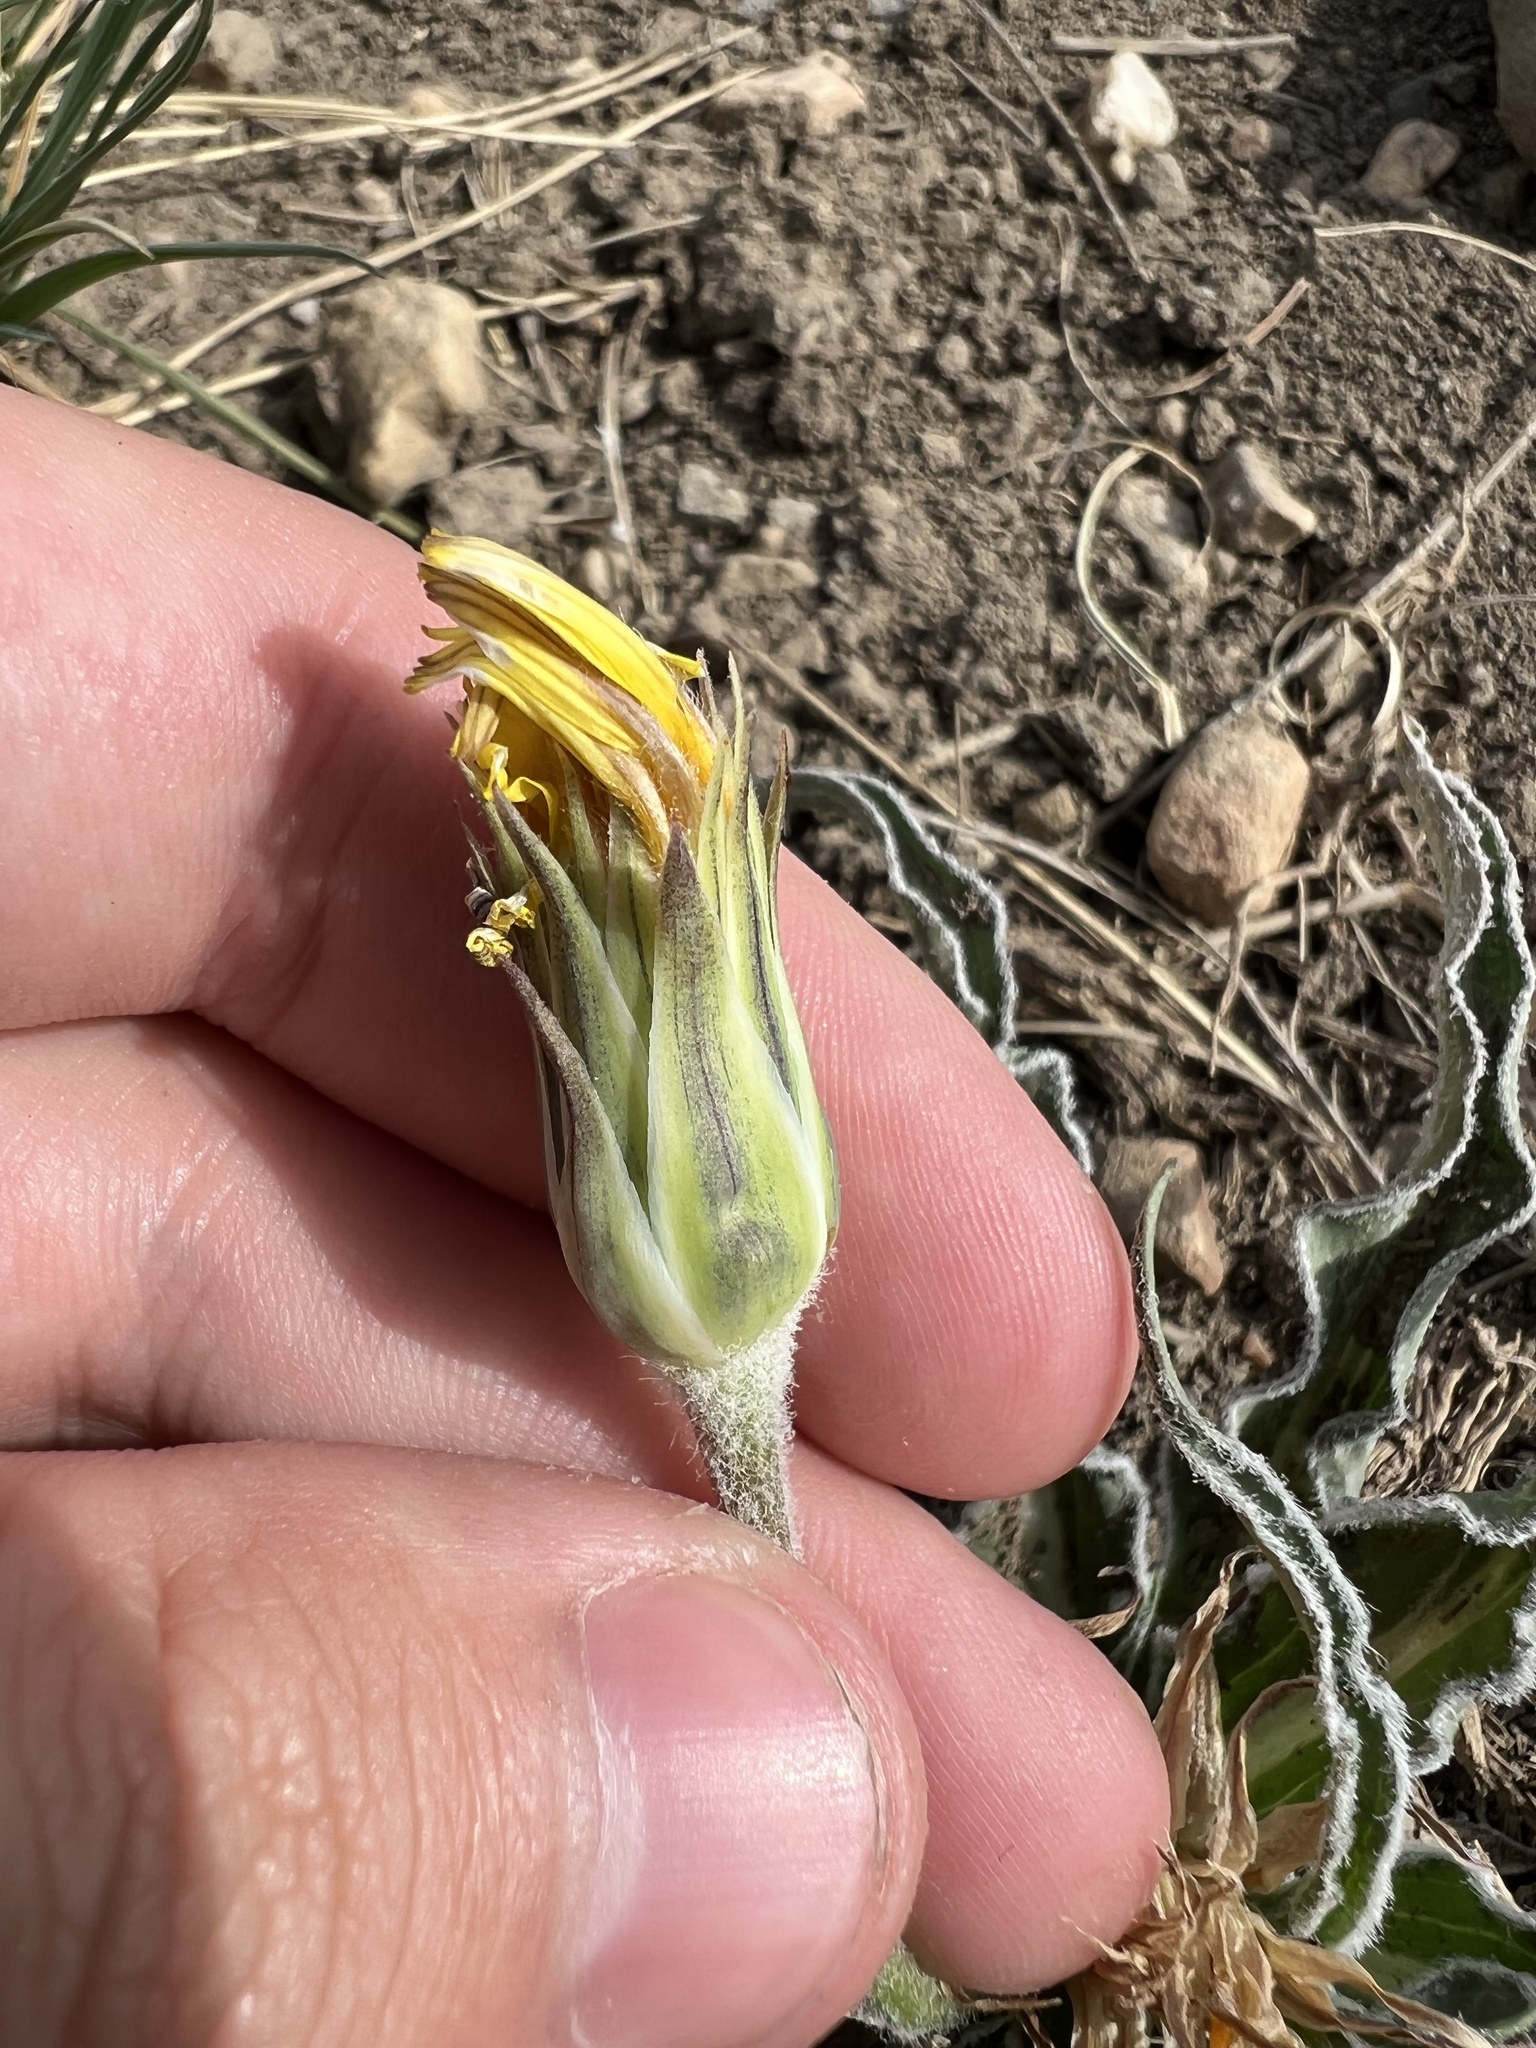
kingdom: Plantae
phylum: Tracheophyta
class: Magnoliopsida
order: Asterales
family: Asteraceae
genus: Microseris
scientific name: Microseris cuspidata
